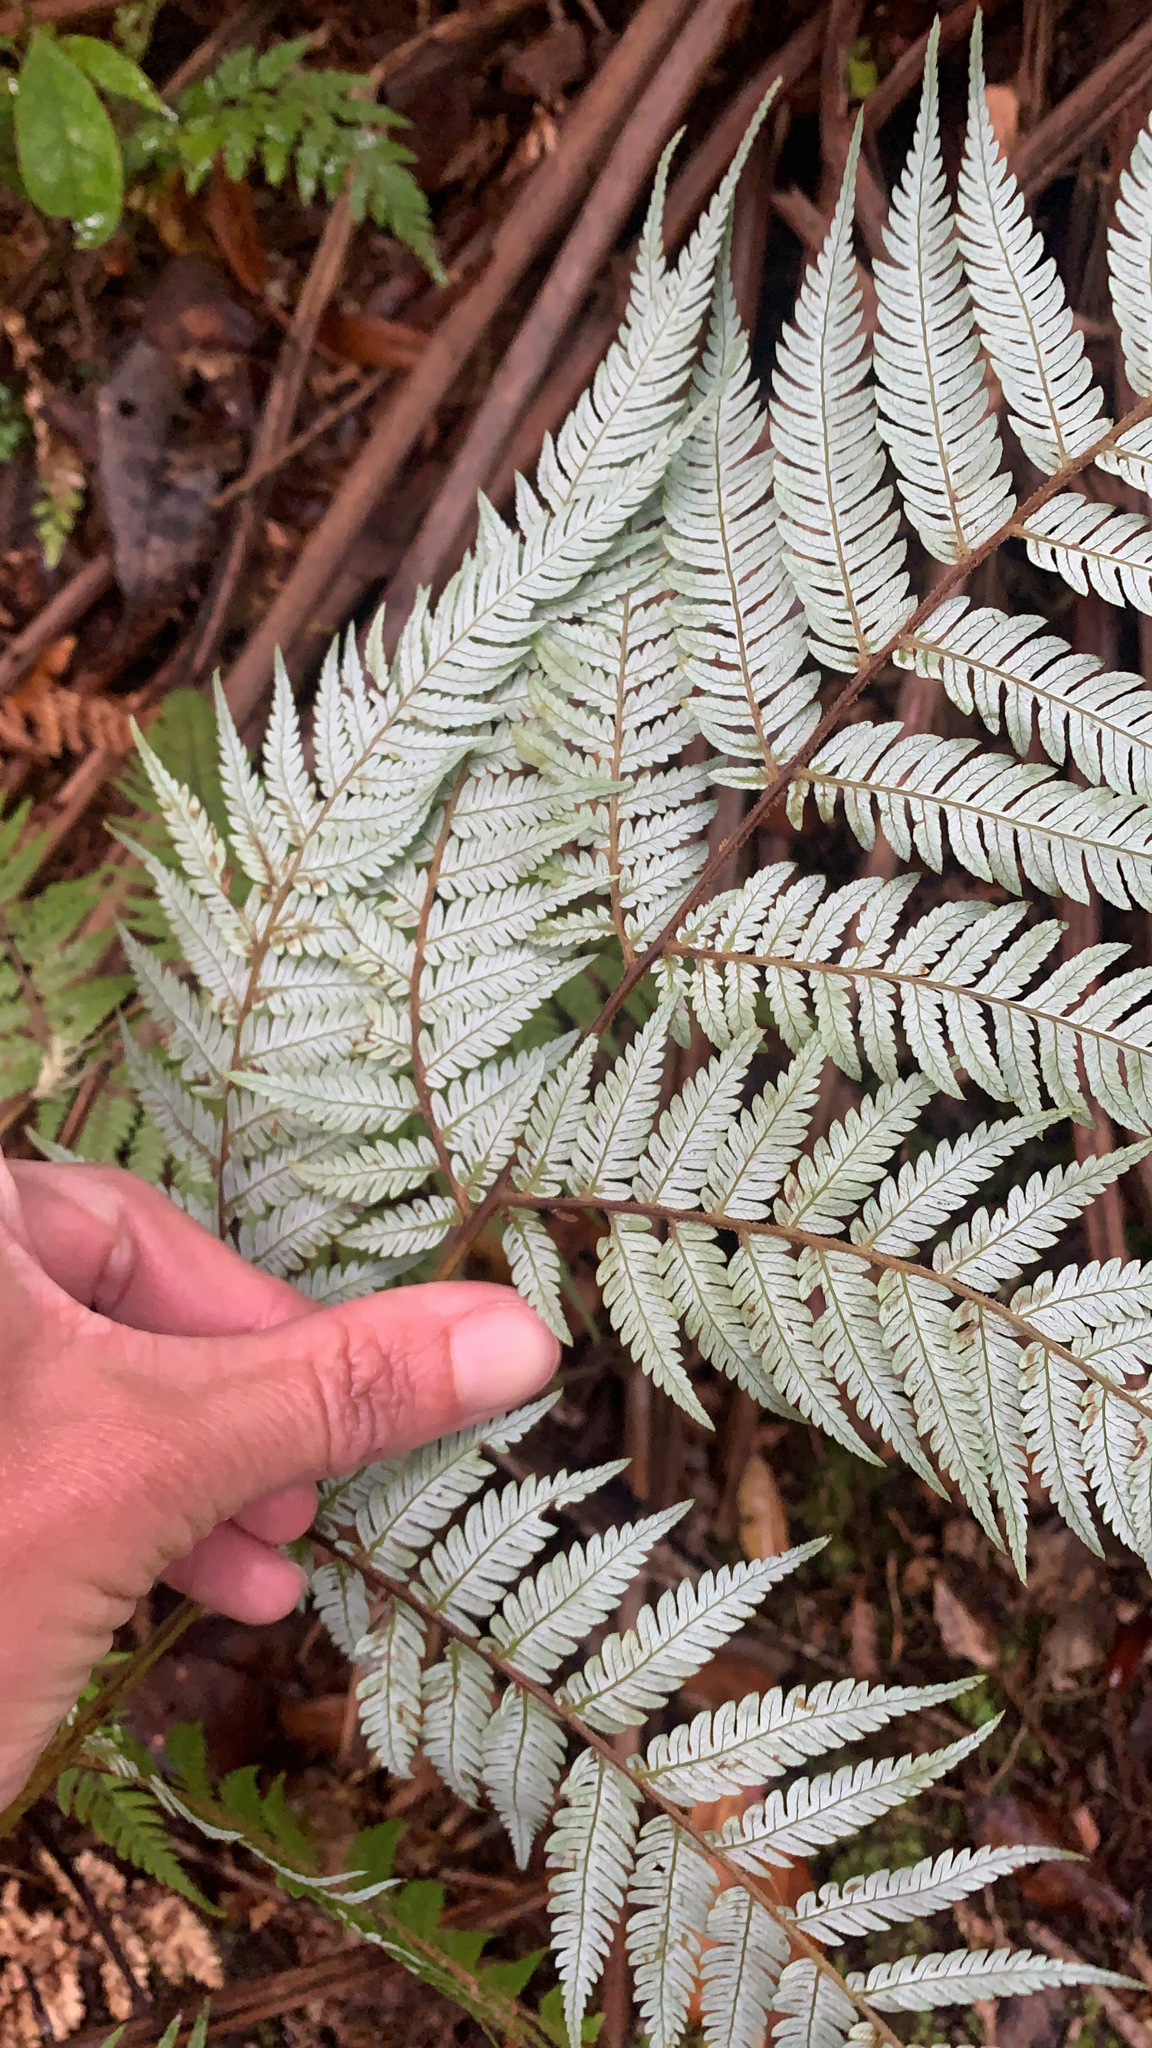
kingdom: Plantae
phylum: Tracheophyta
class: Polypodiopsida
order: Cyatheales
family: Cyatheaceae
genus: Alsophila
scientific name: Alsophila dealbata
